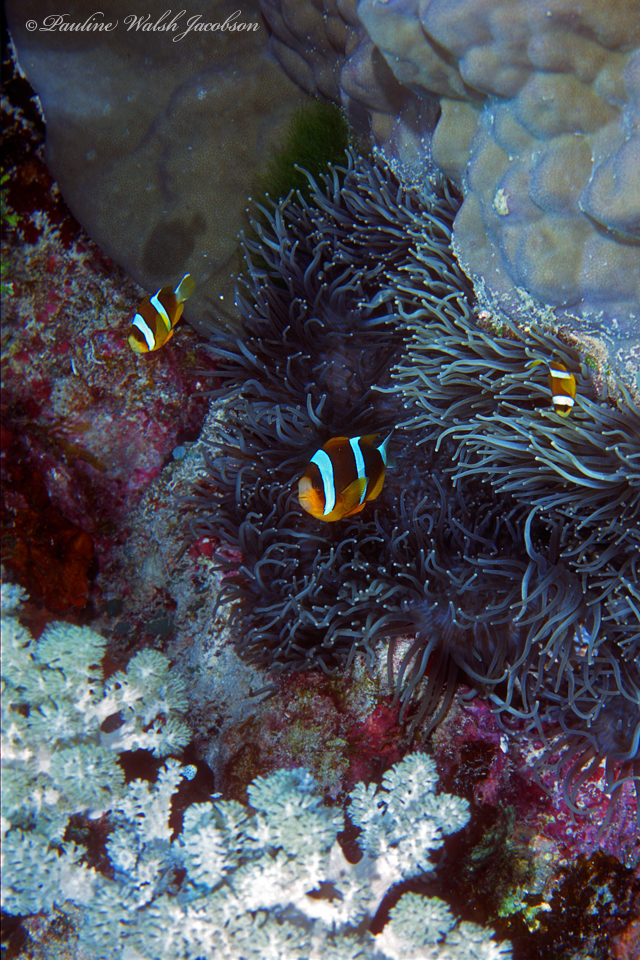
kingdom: Animalia
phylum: Chordata
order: Perciformes
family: Pomacentridae
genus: Amphiprion
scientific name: Amphiprion akindynos
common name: Barrier reef anemonefish
